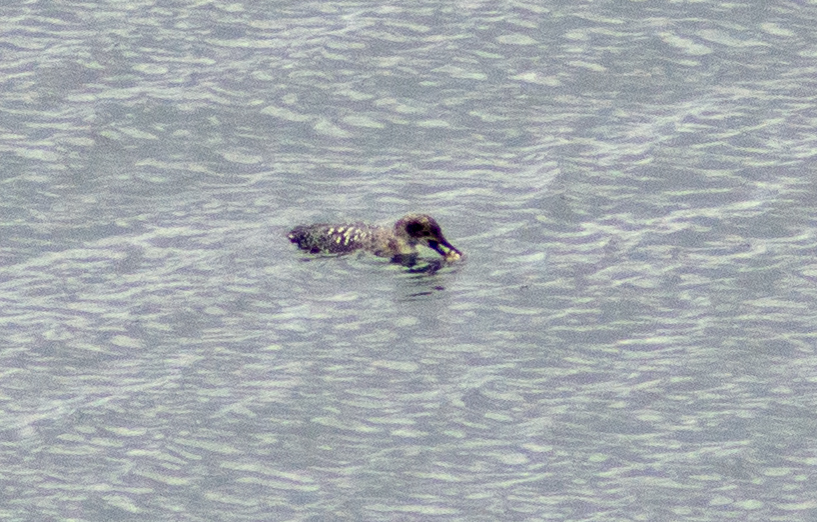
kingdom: Animalia
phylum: Chordata
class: Aves
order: Gaviiformes
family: Gaviidae
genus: Gavia
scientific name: Gavia immer
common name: Common loon
